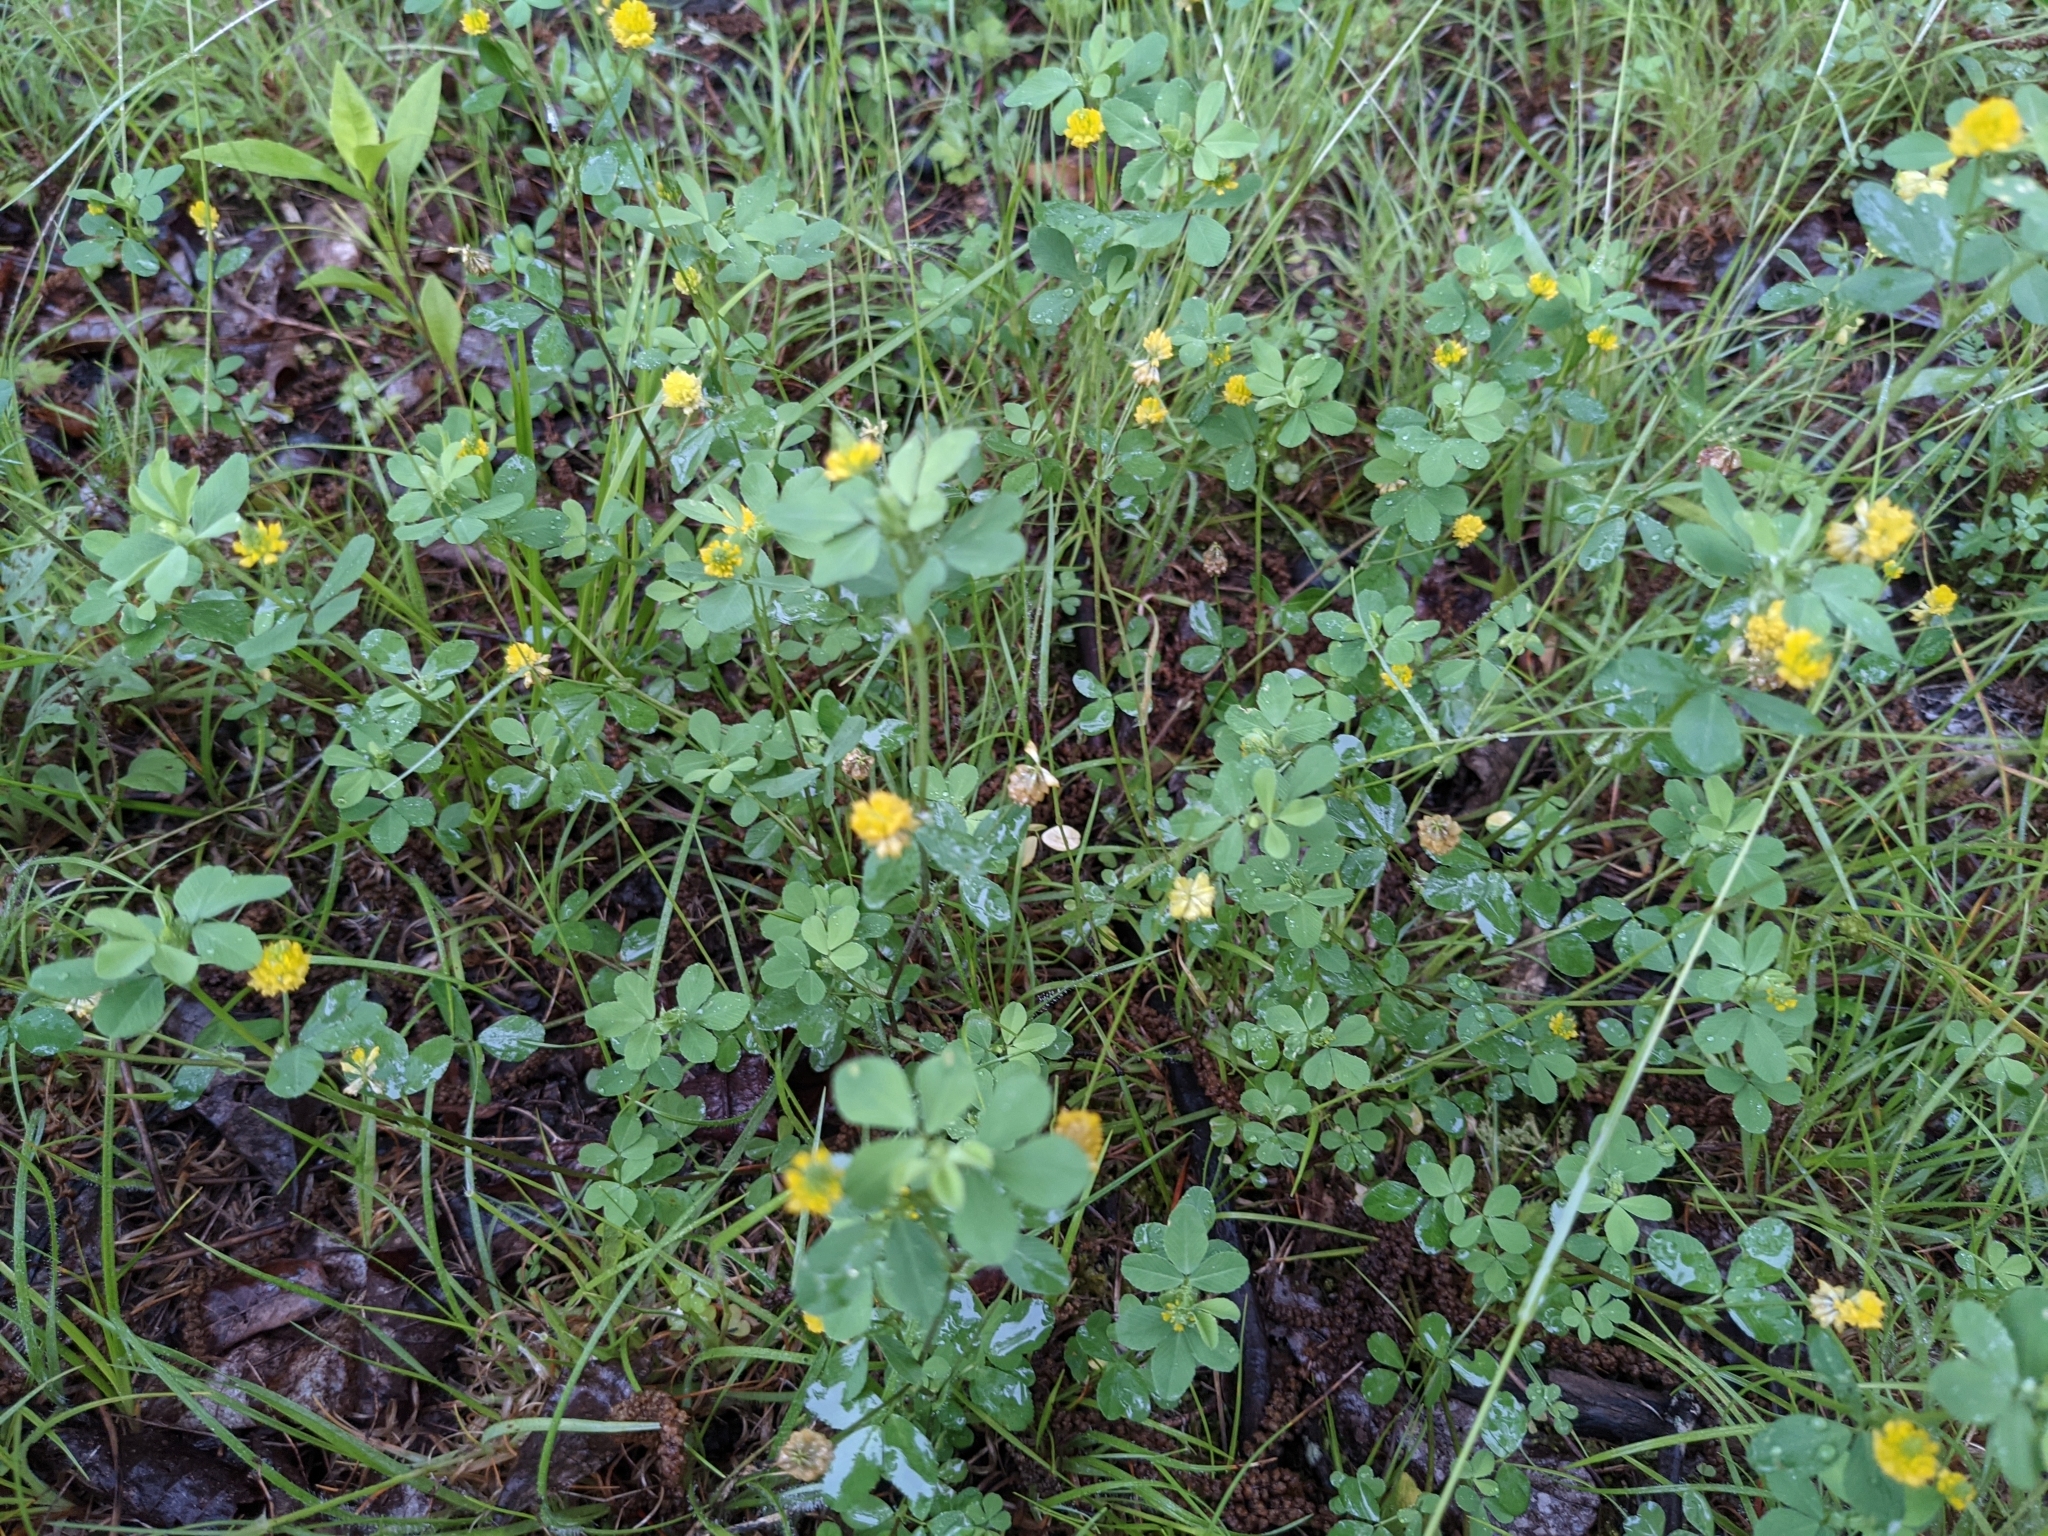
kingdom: Plantae
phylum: Tracheophyta
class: Magnoliopsida
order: Fabales
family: Fabaceae
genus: Trifolium
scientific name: Trifolium campestre
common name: Field clover
